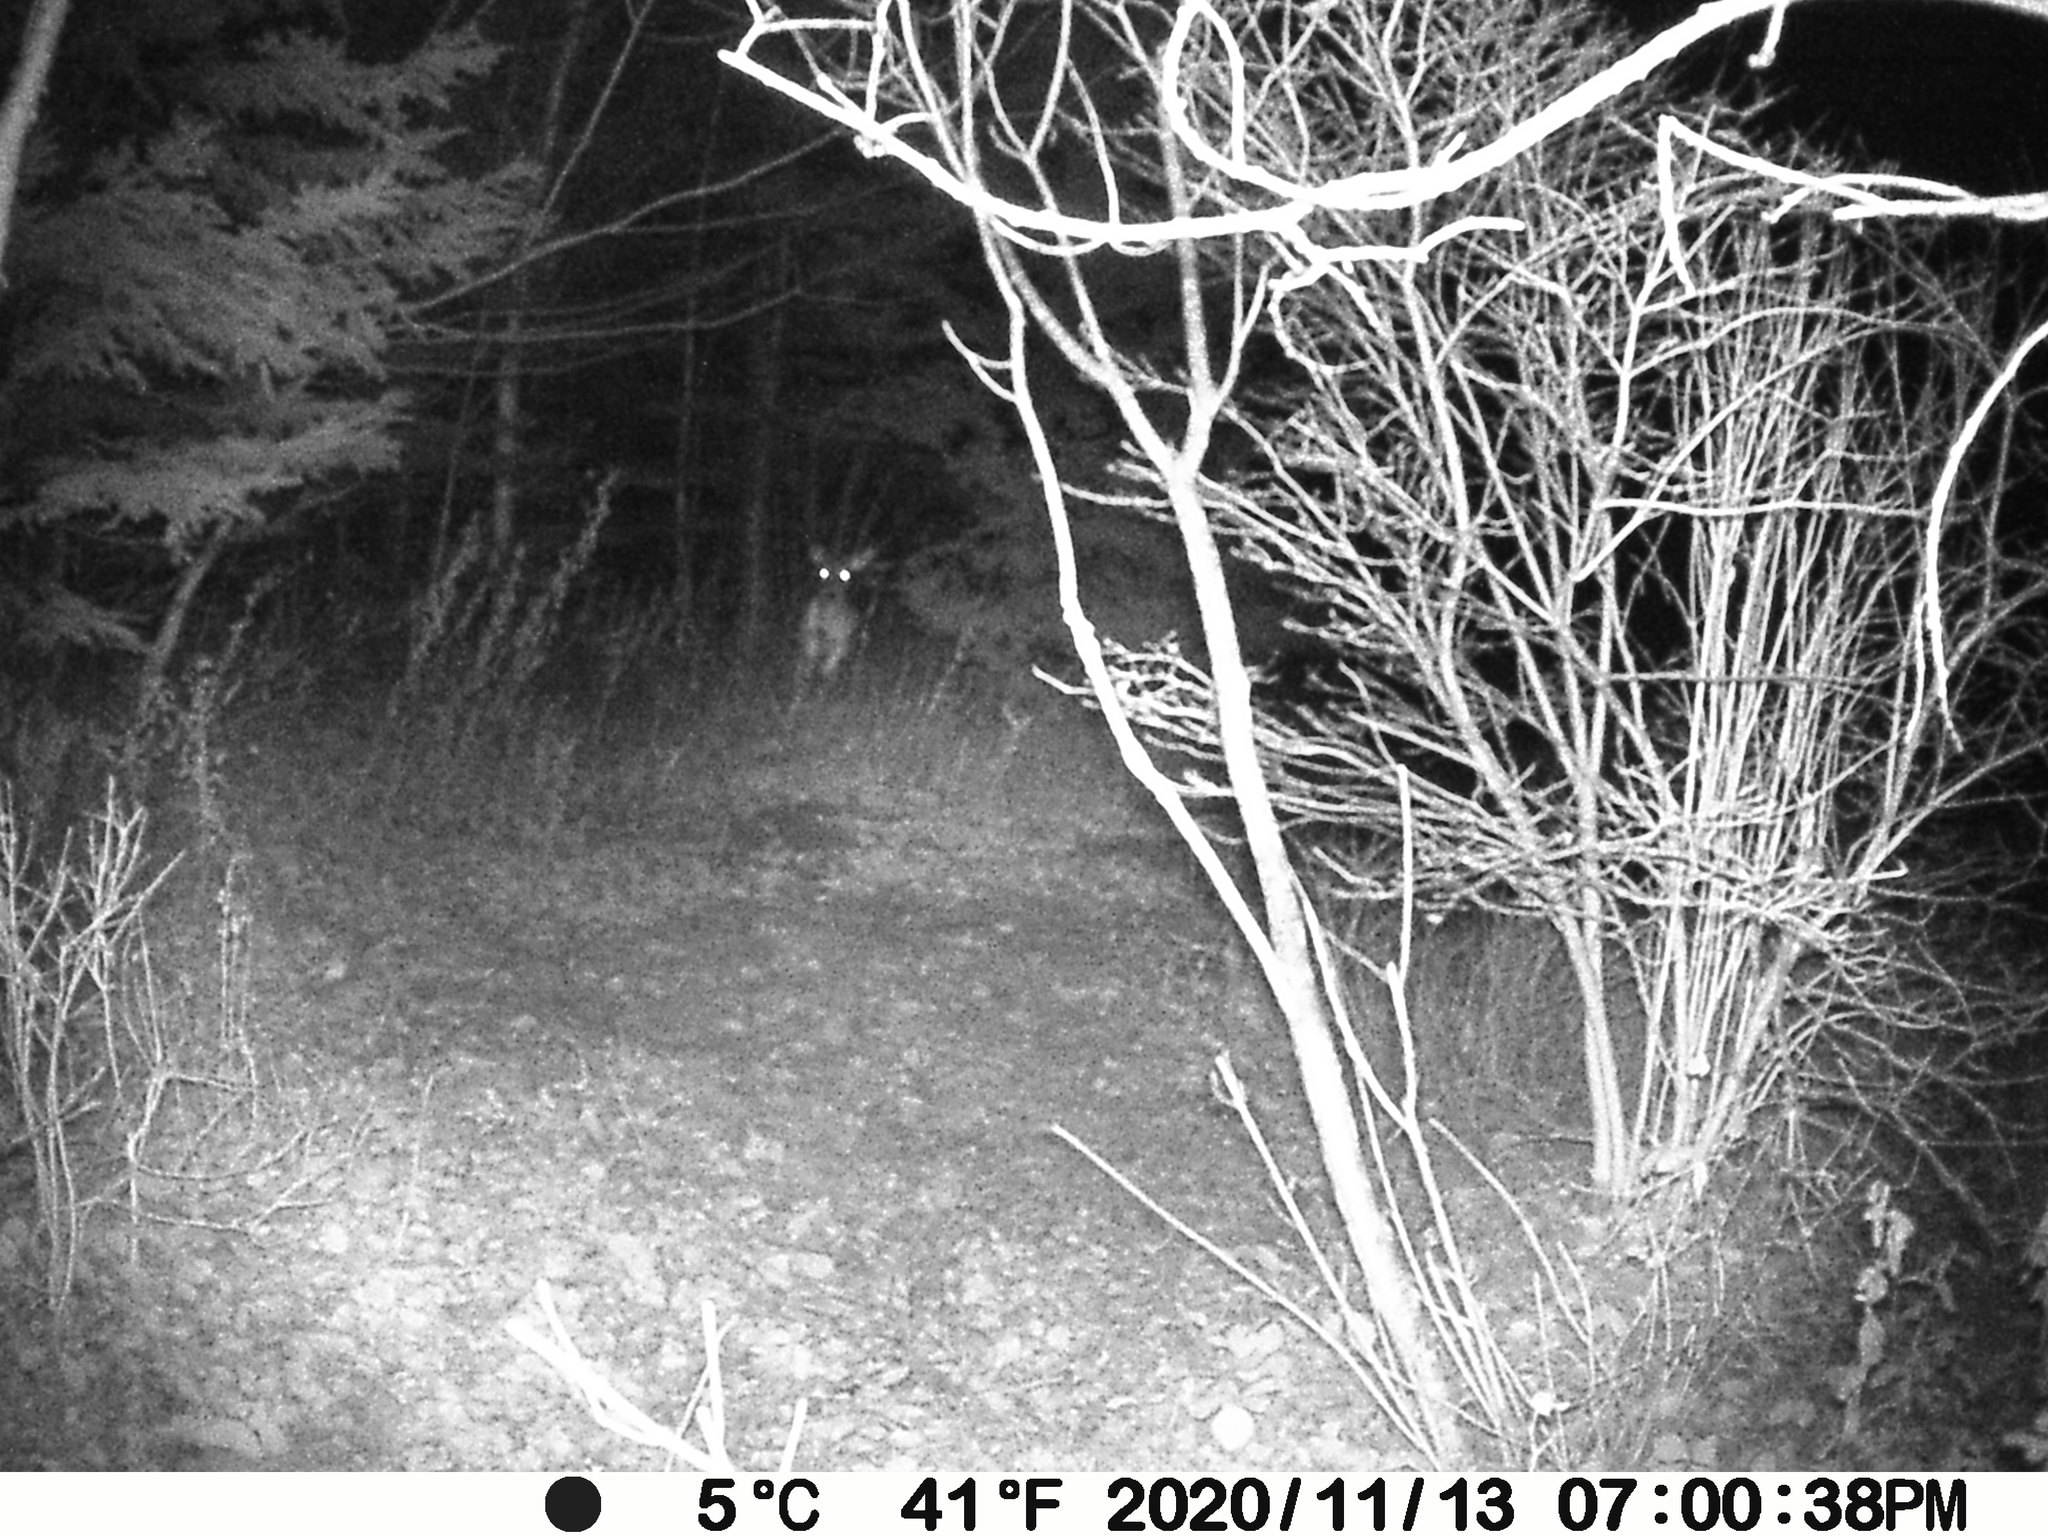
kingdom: Animalia
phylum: Chordata
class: Mammalia
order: Artiodactyla
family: Cervidae
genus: Odocoileus
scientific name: Odocoileus virginianus
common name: White-tailed deer
